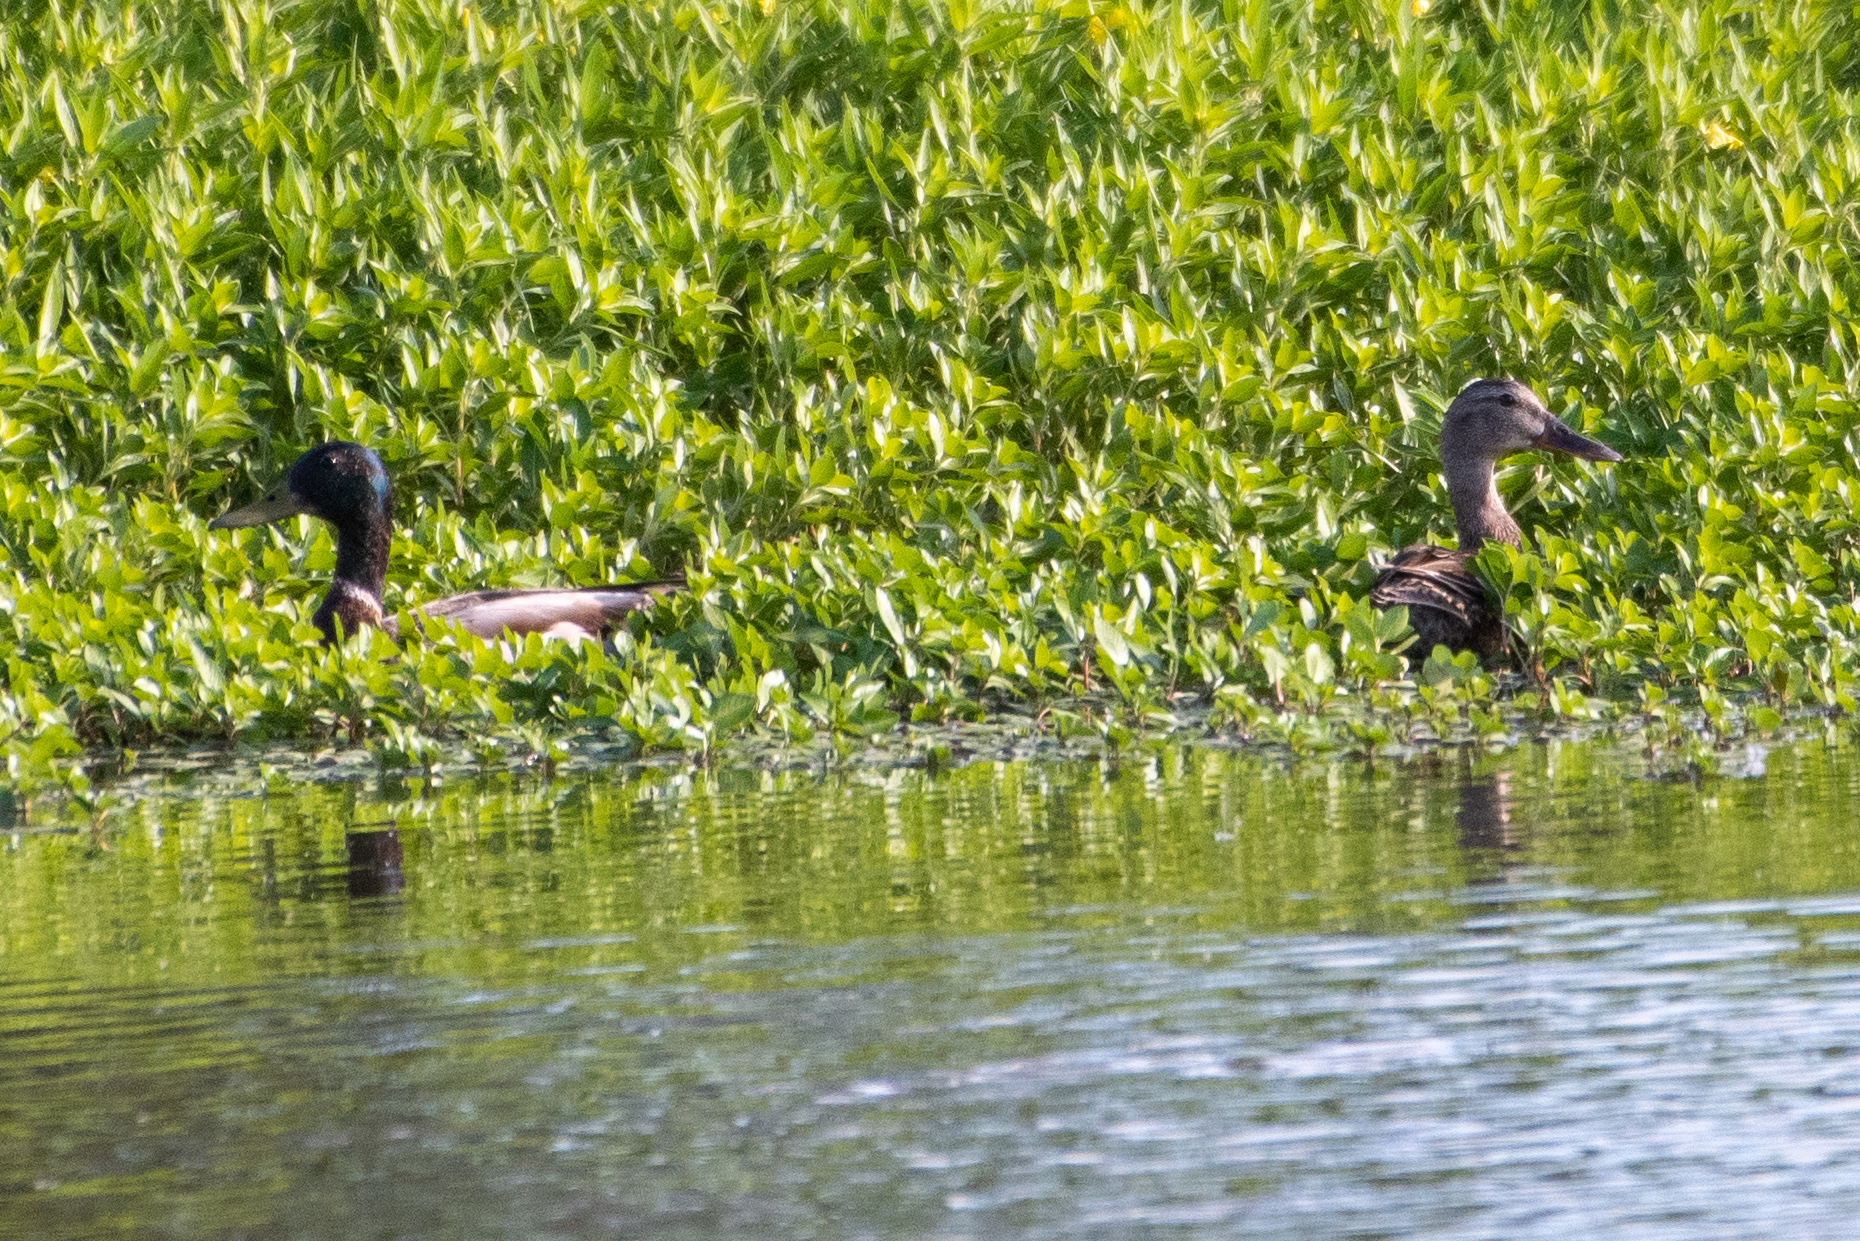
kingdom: Animalia
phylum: Chordata
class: Aves
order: Anseriformes
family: Anatidae
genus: Anas
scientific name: Anas platyrhynchos
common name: Mallard
